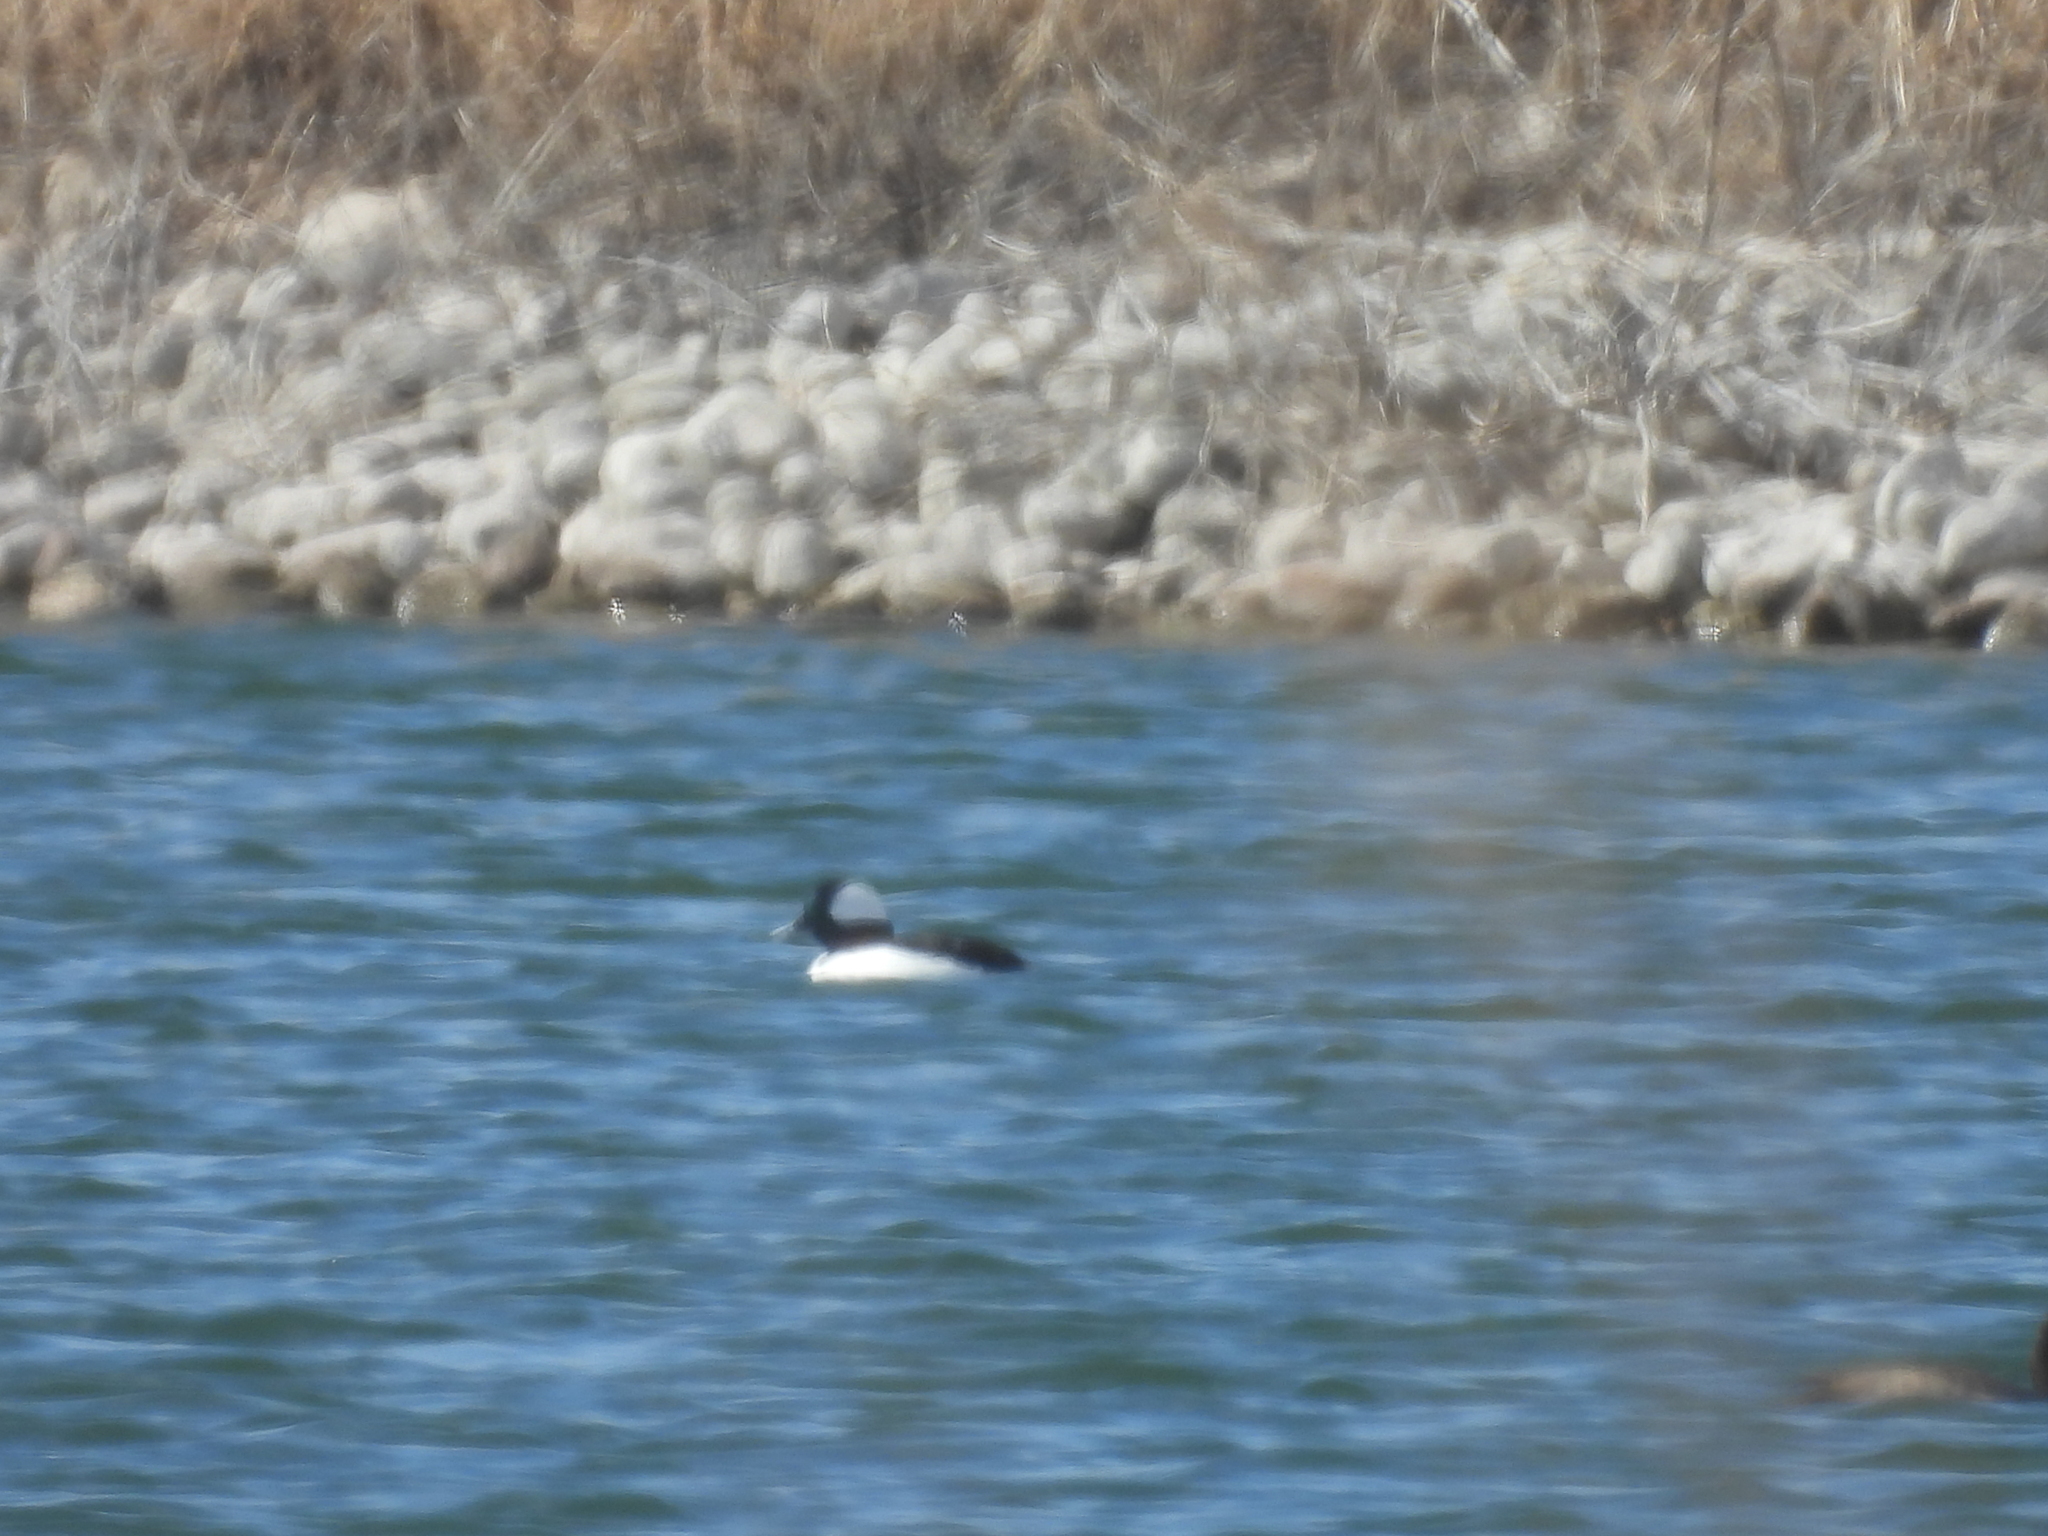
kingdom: Animalia
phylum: Chordata
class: Aves
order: Anseriformes
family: Anatidae
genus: Bucephala
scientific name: Bucephala albeola
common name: Bufflehead
